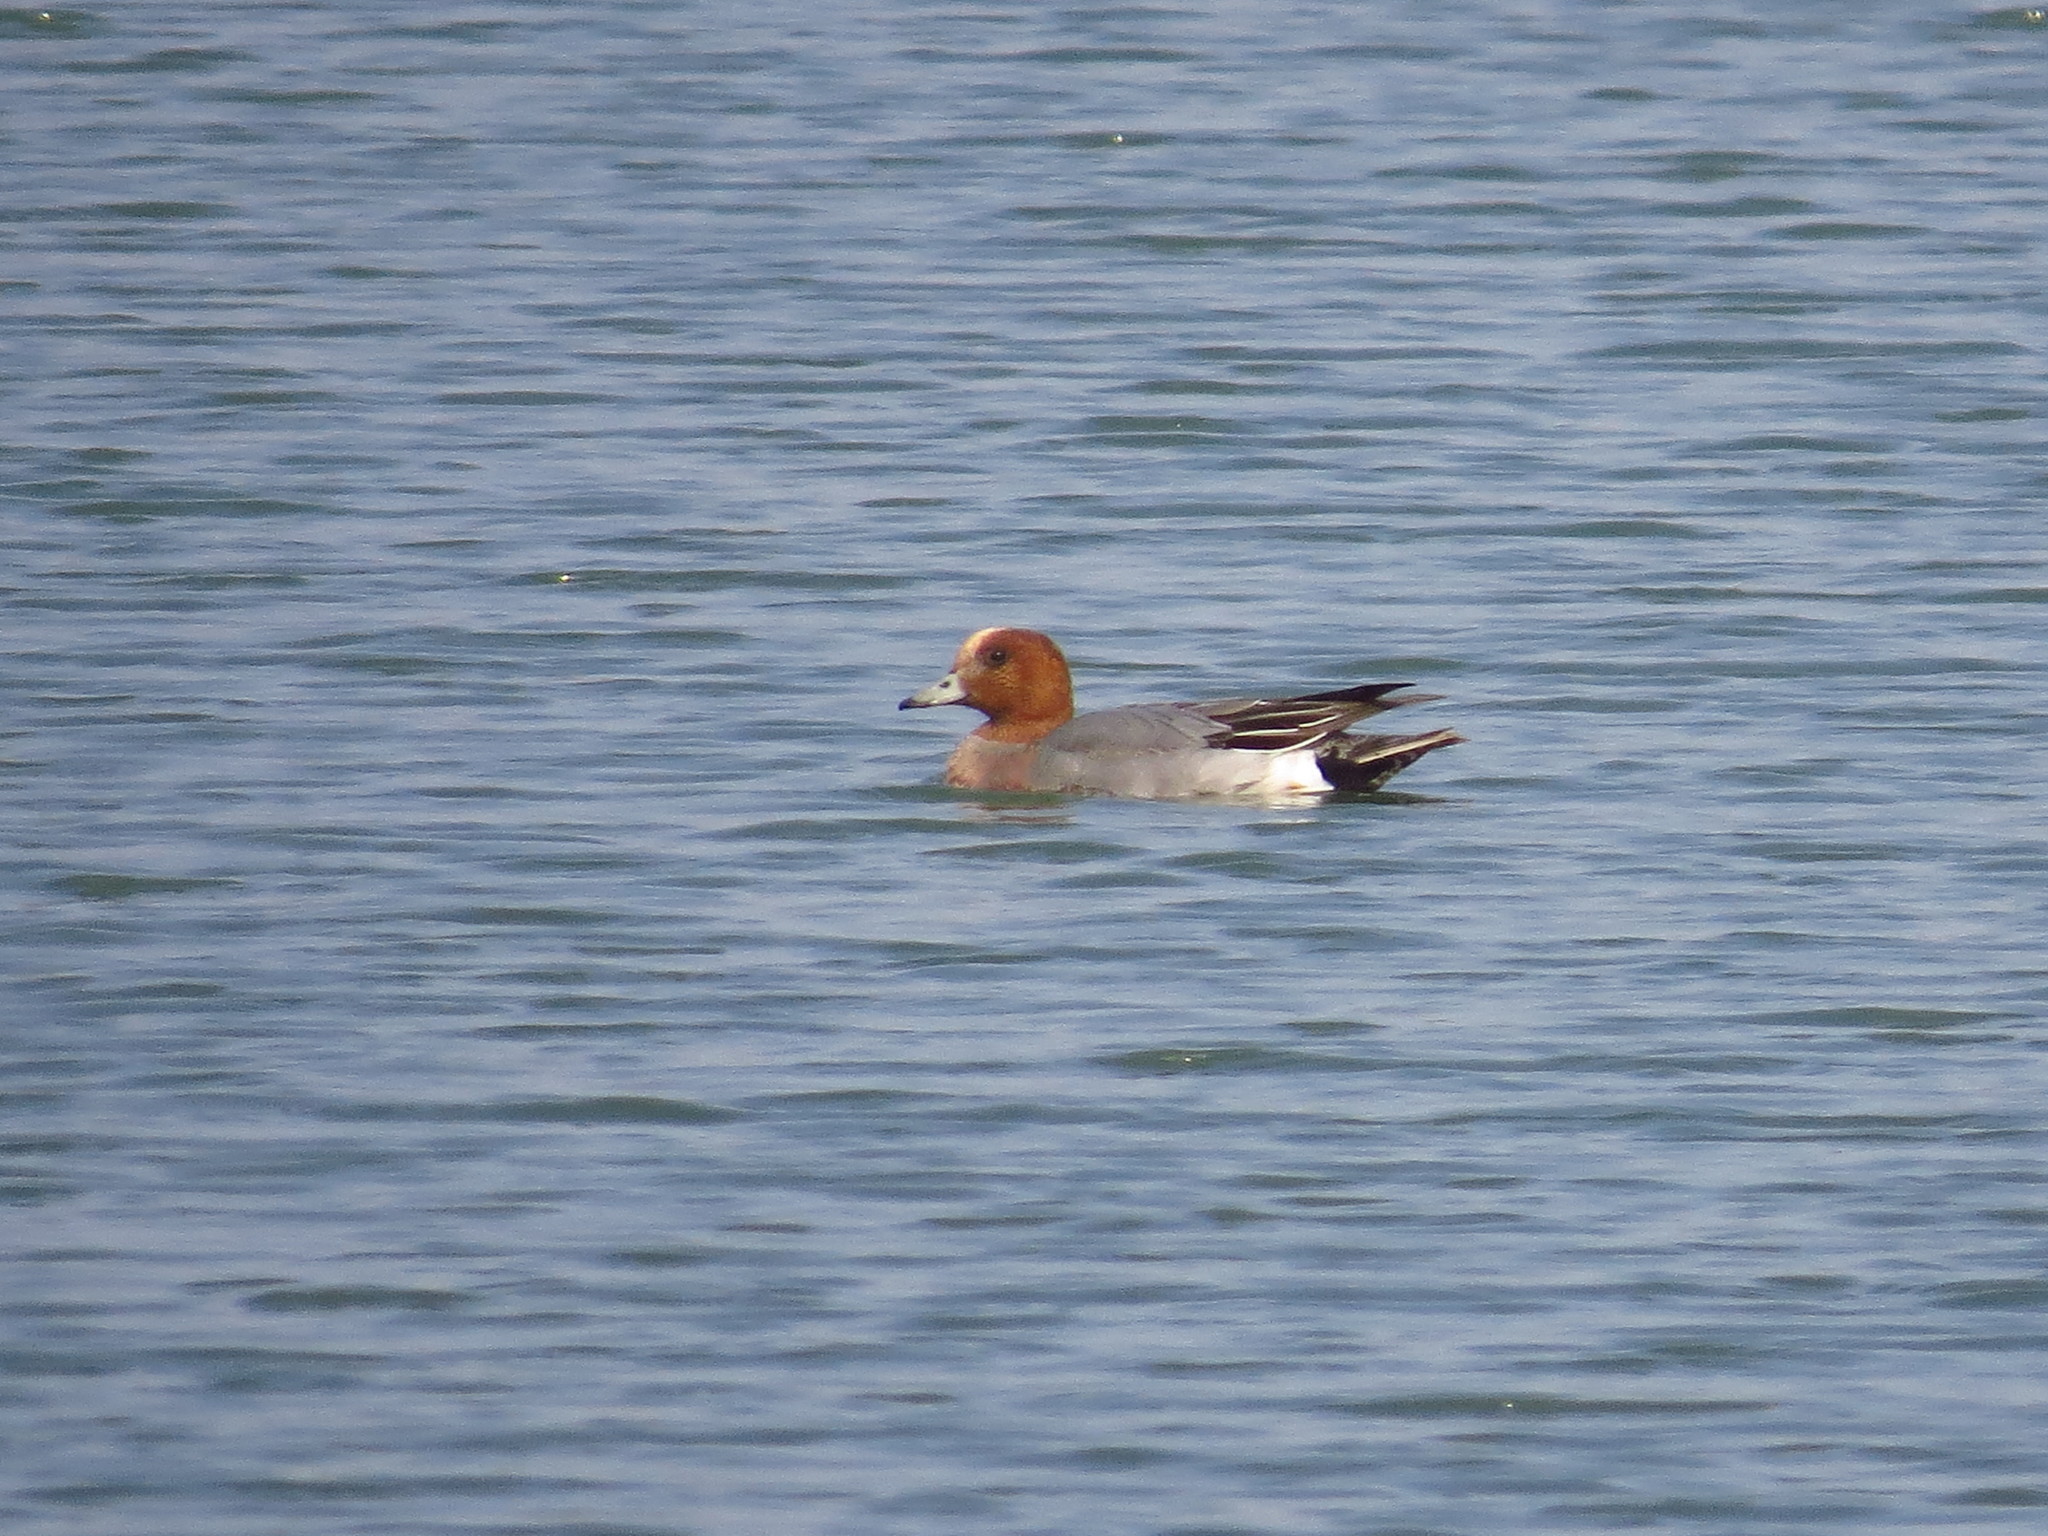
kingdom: Animalia
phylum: Chordata
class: Aves
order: Anseriformes
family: Anatidae
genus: Mareca
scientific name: Mareca penelope
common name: Eurasian wigeon
